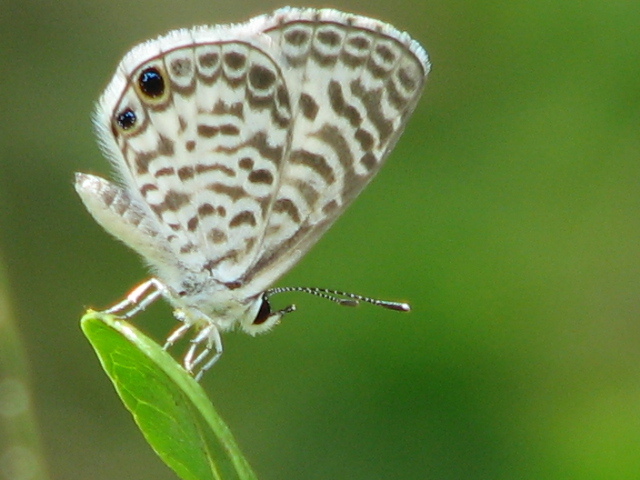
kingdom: Animalia
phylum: Arthropoda
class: Insecta
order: Lepidoptera
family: Lycaenidae
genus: Leptotes
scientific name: Leptotes cassius
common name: Cassius blue
